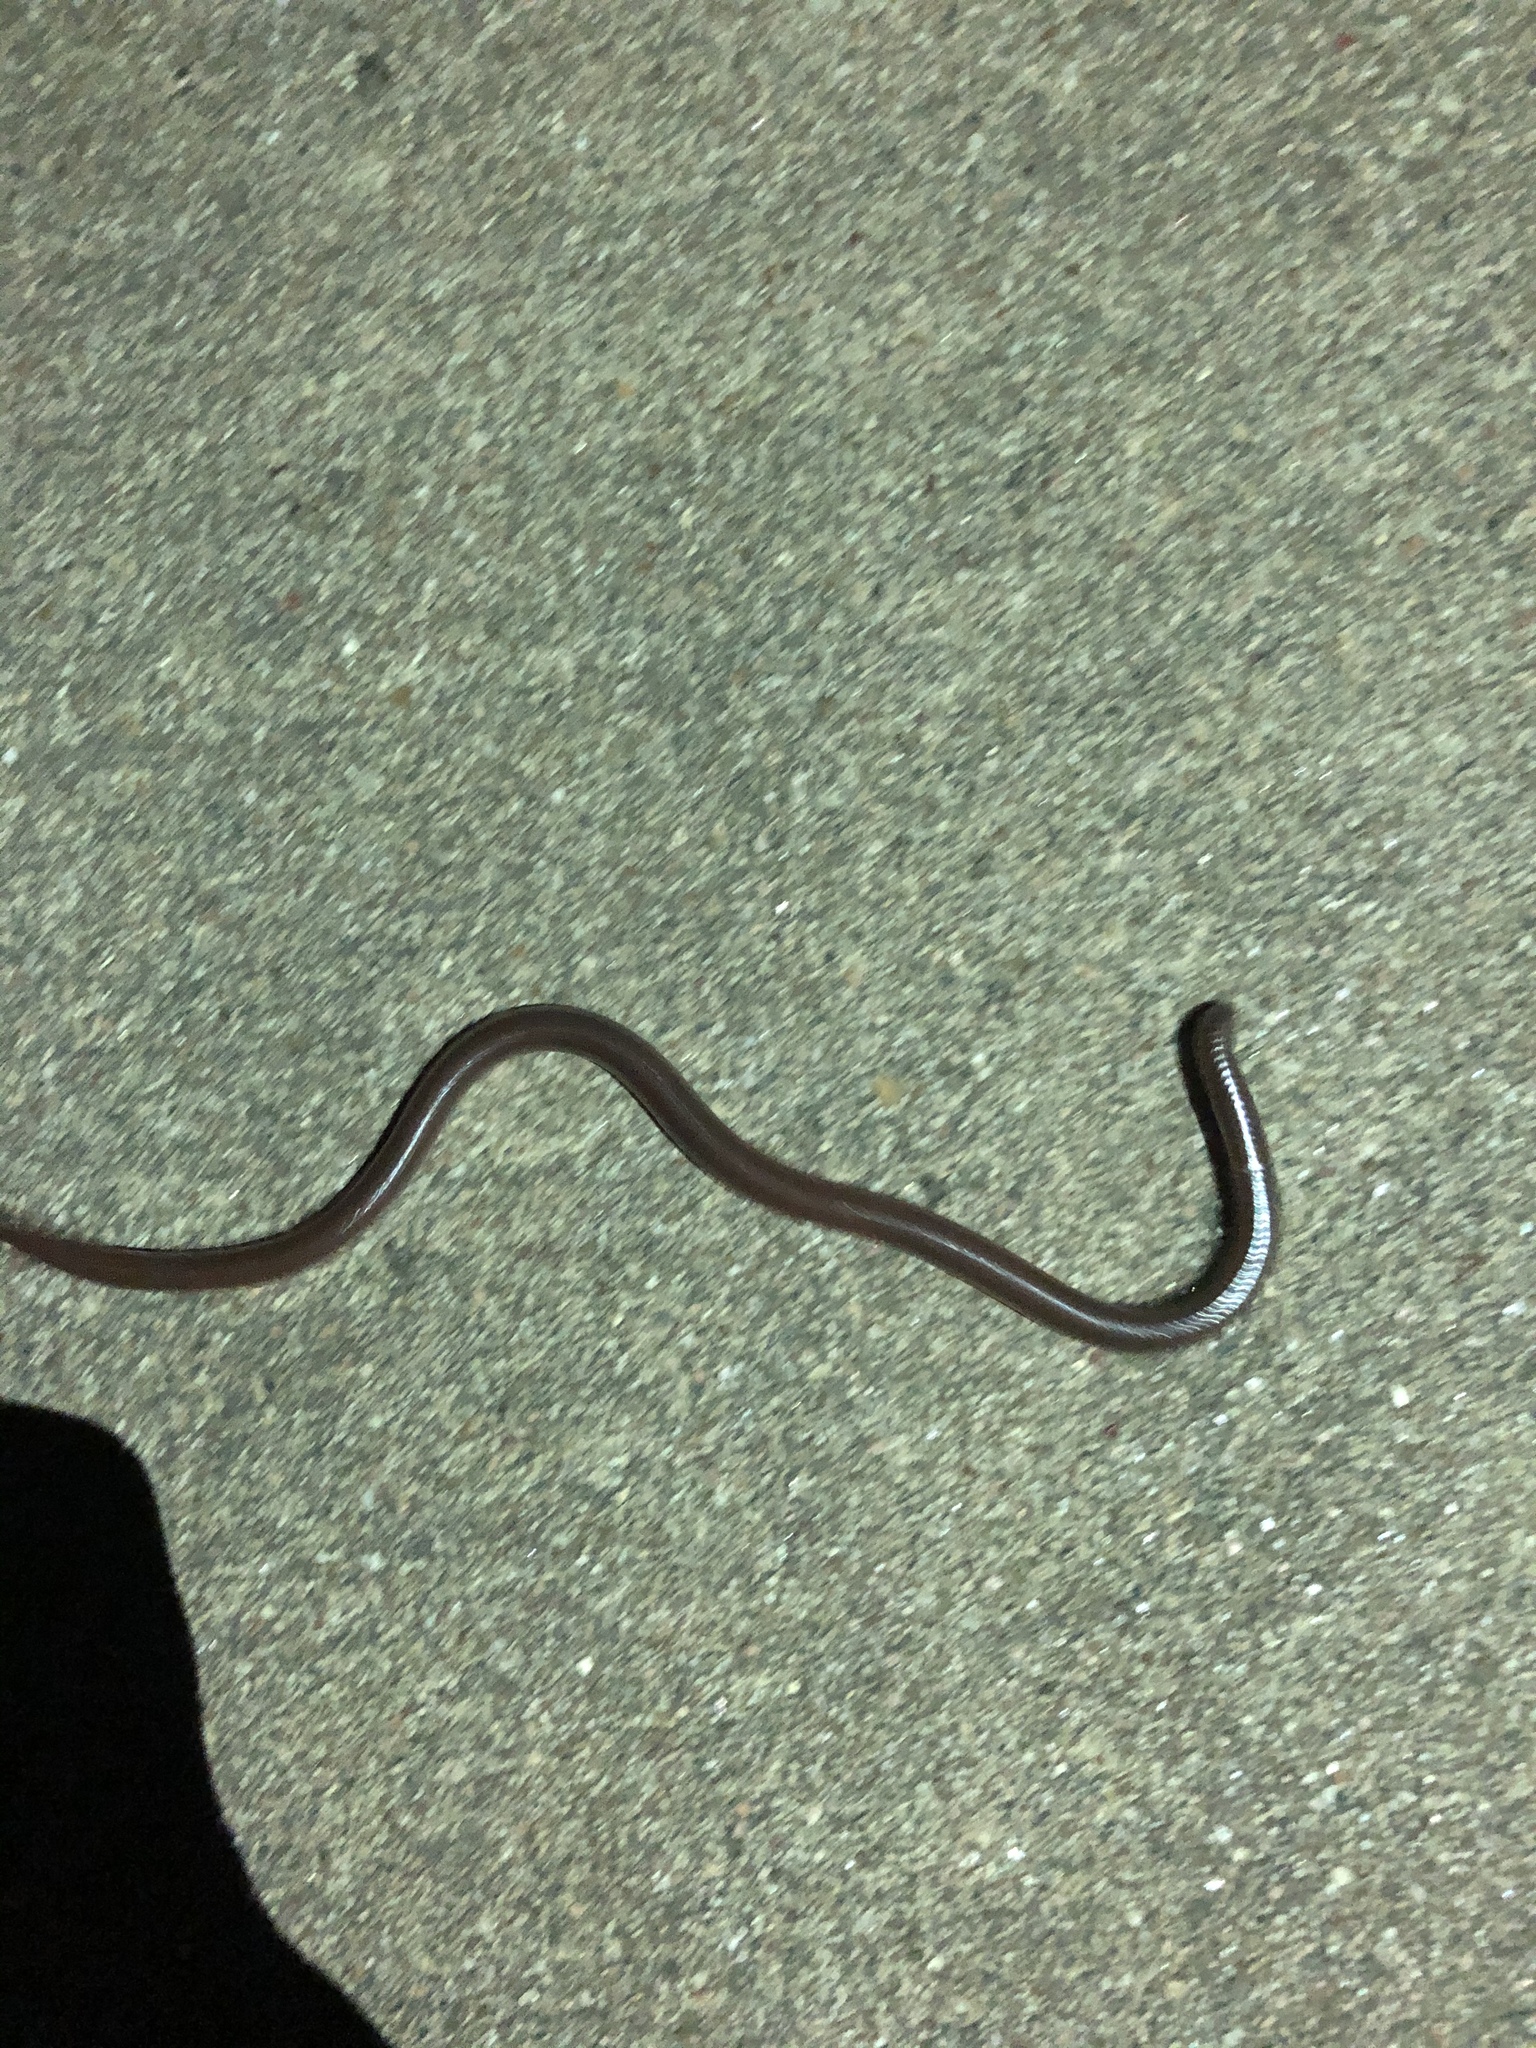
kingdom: Animalia
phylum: Chordata
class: Squamata
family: Leptotyphlopidae
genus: Rena
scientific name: Rena dulcis
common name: Texas blind snake
